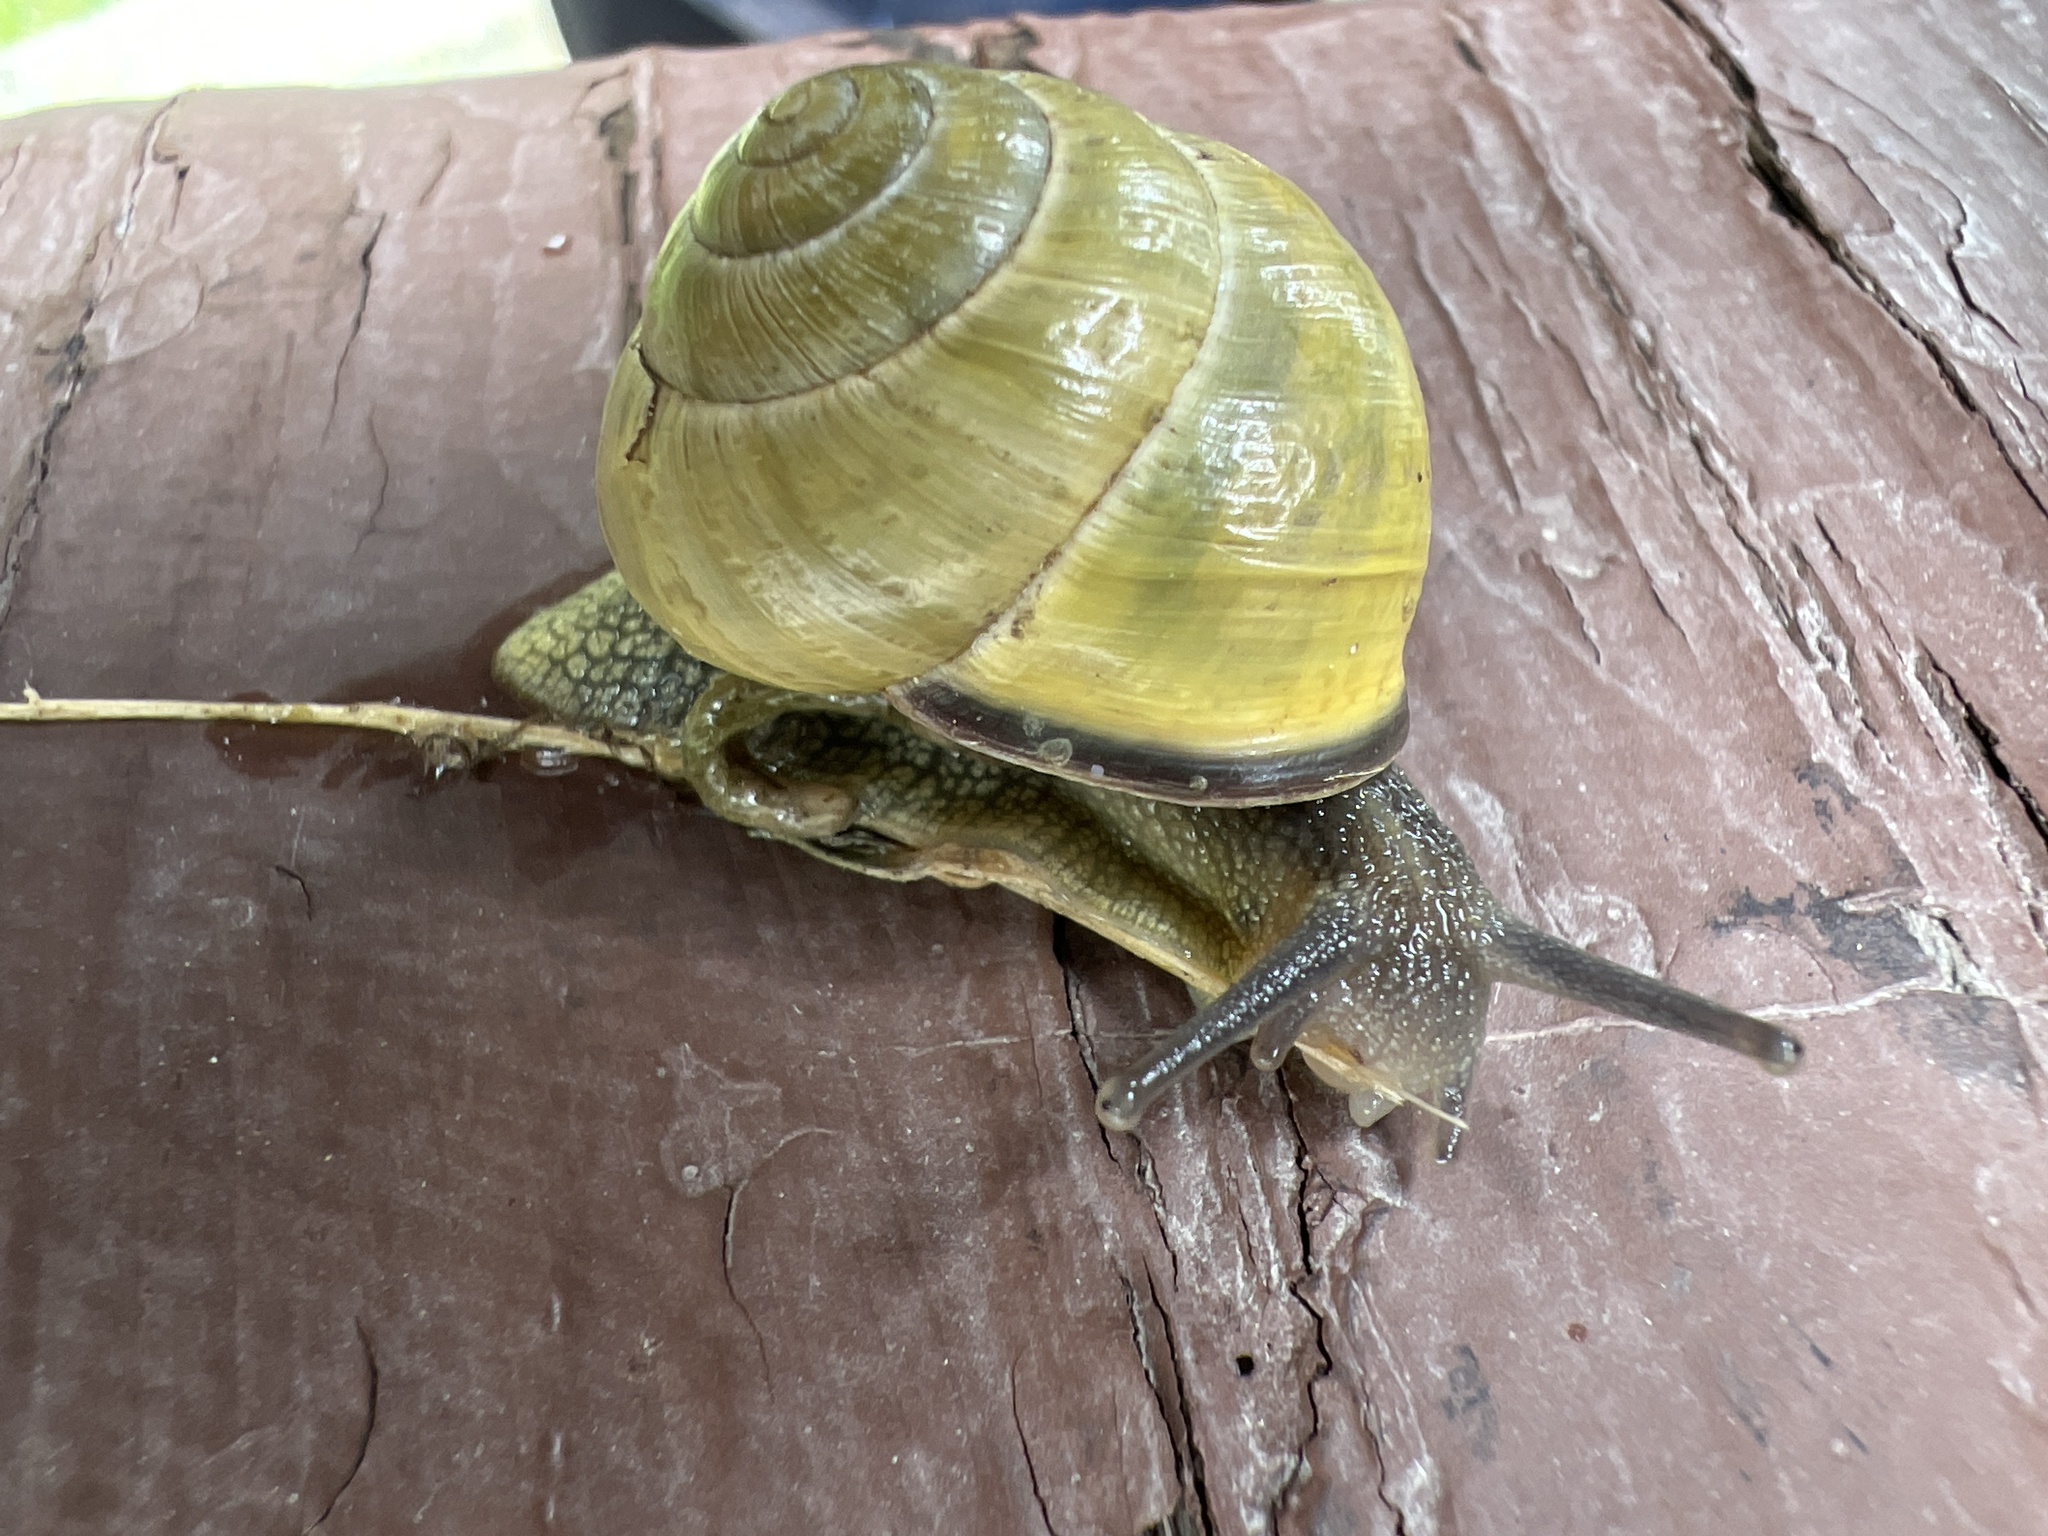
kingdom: Animalia
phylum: Mollusca
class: Gastropoda
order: Stylommatophora
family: Helicidae
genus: Cepaea
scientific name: Cepaea nemoralis
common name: Grovesnail
